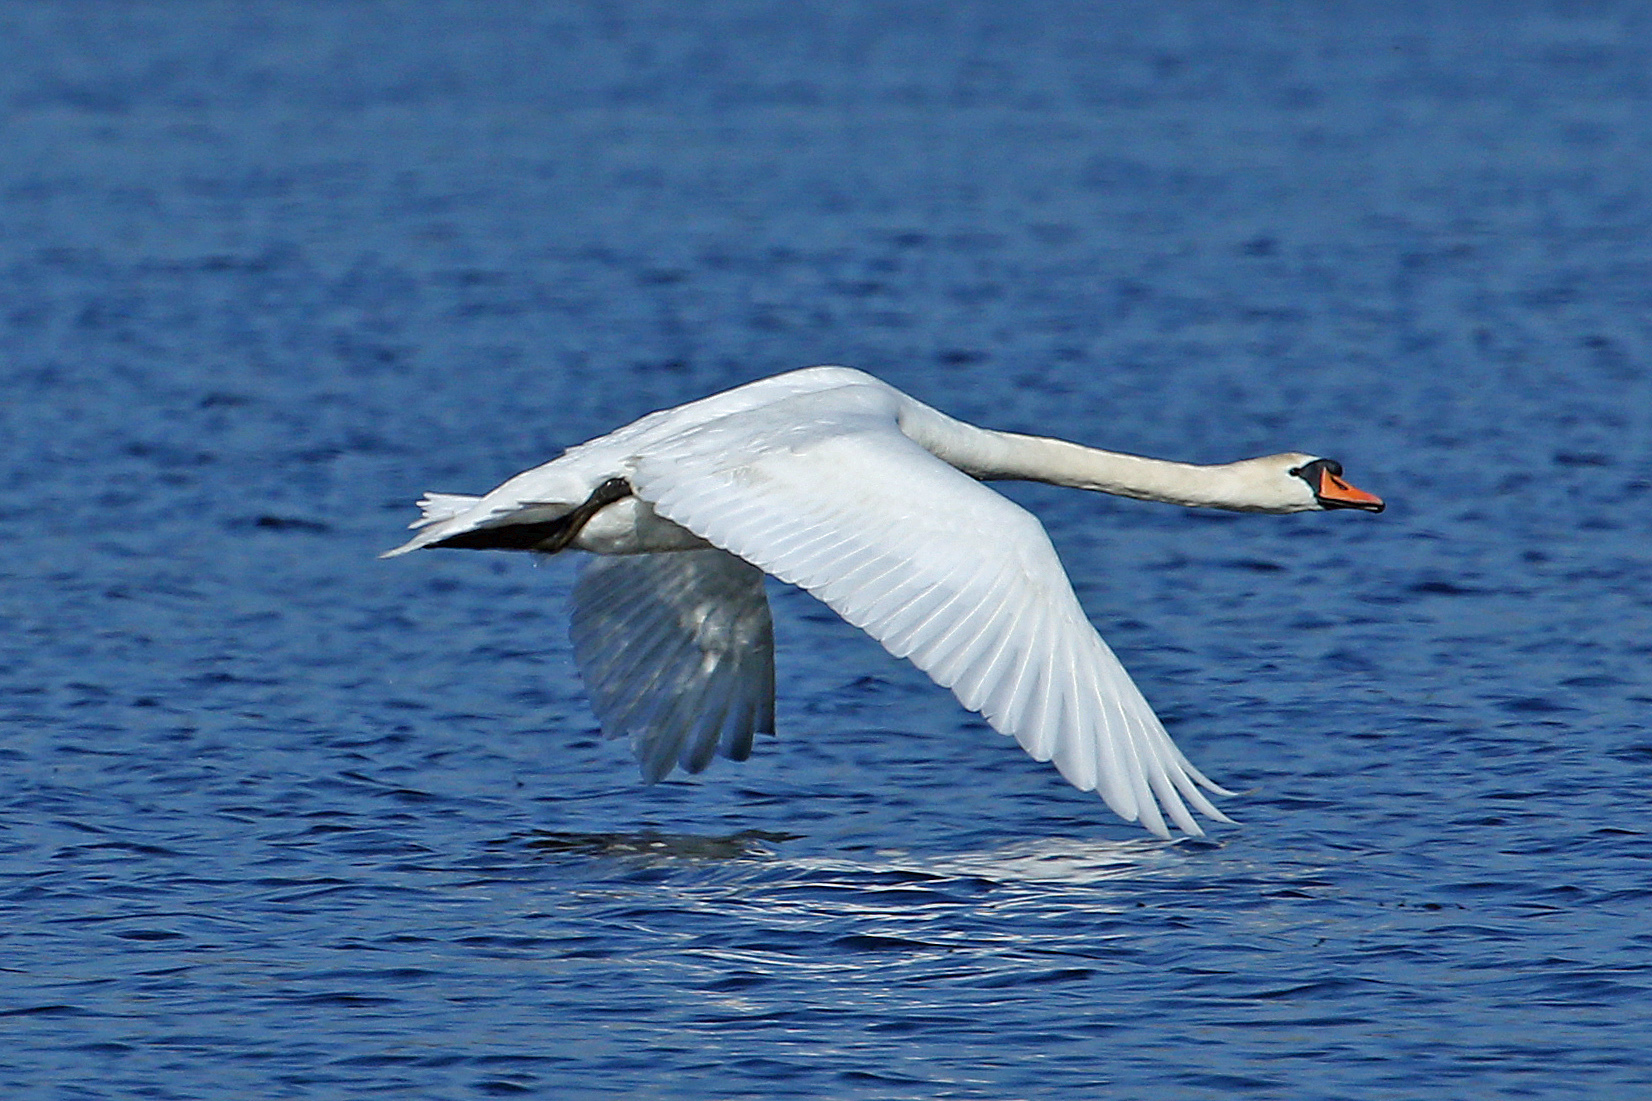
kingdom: Animalia
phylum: Chordata
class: Aves
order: Anseriformes
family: Anatidae
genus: Cygnus
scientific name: Cygnus olor
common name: Mute swan
